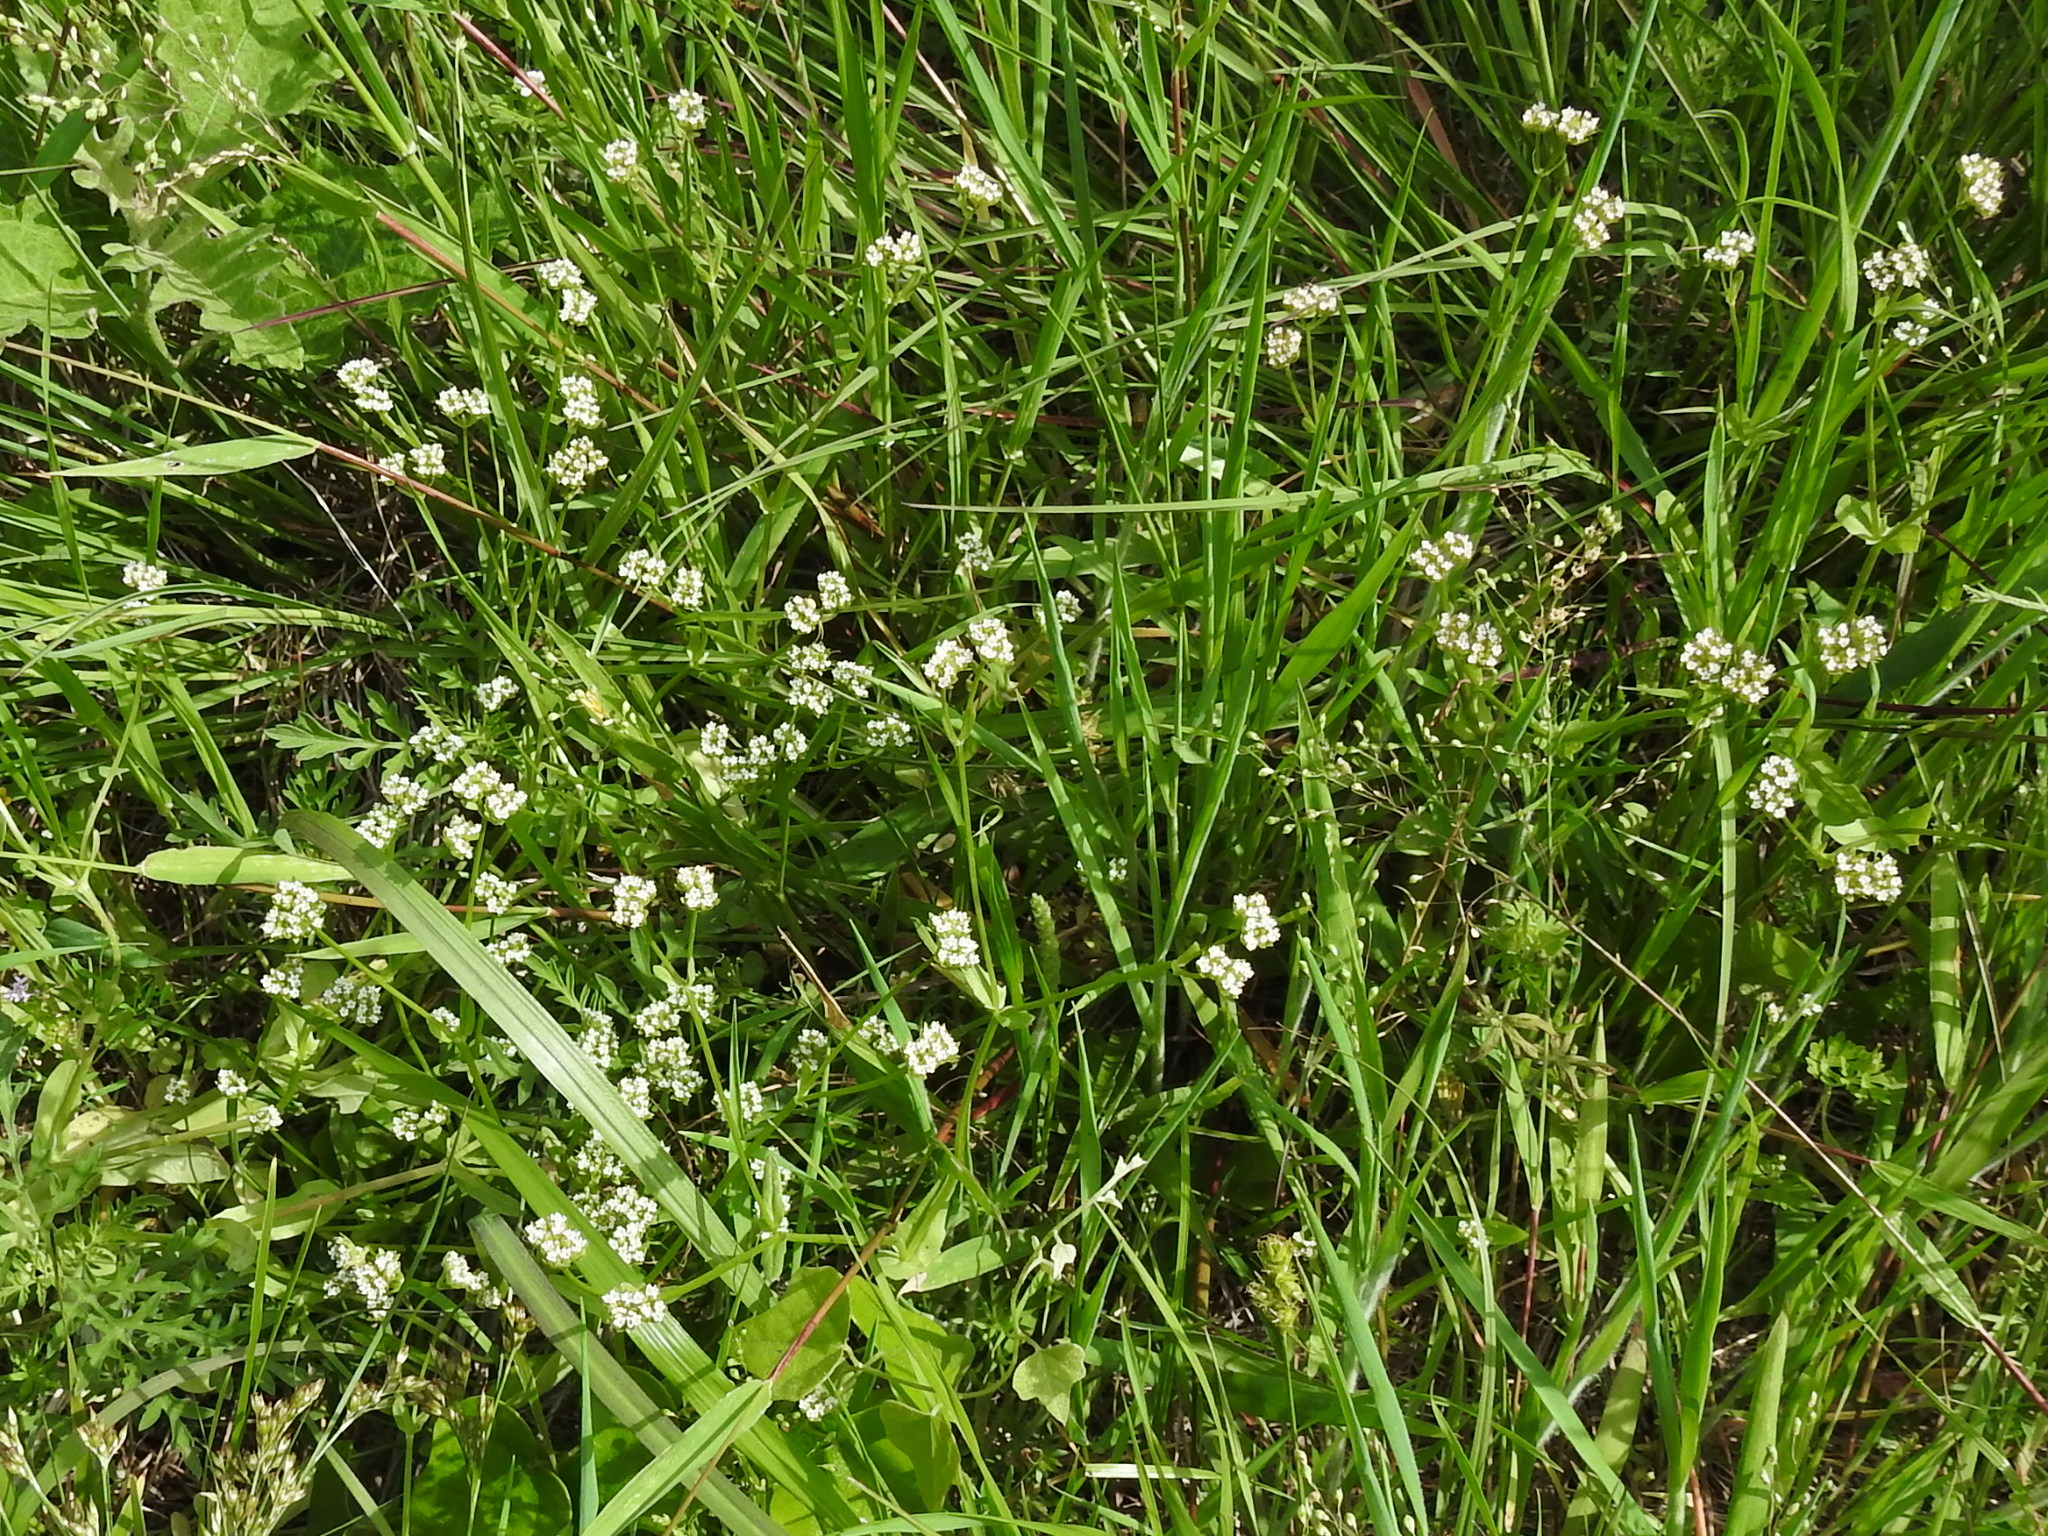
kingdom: Plantae
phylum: Tracheophyta
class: Magnoliopsida
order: Dipsacales
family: Caprifoliaceae
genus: Valerianella
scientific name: Valerianella radiata
